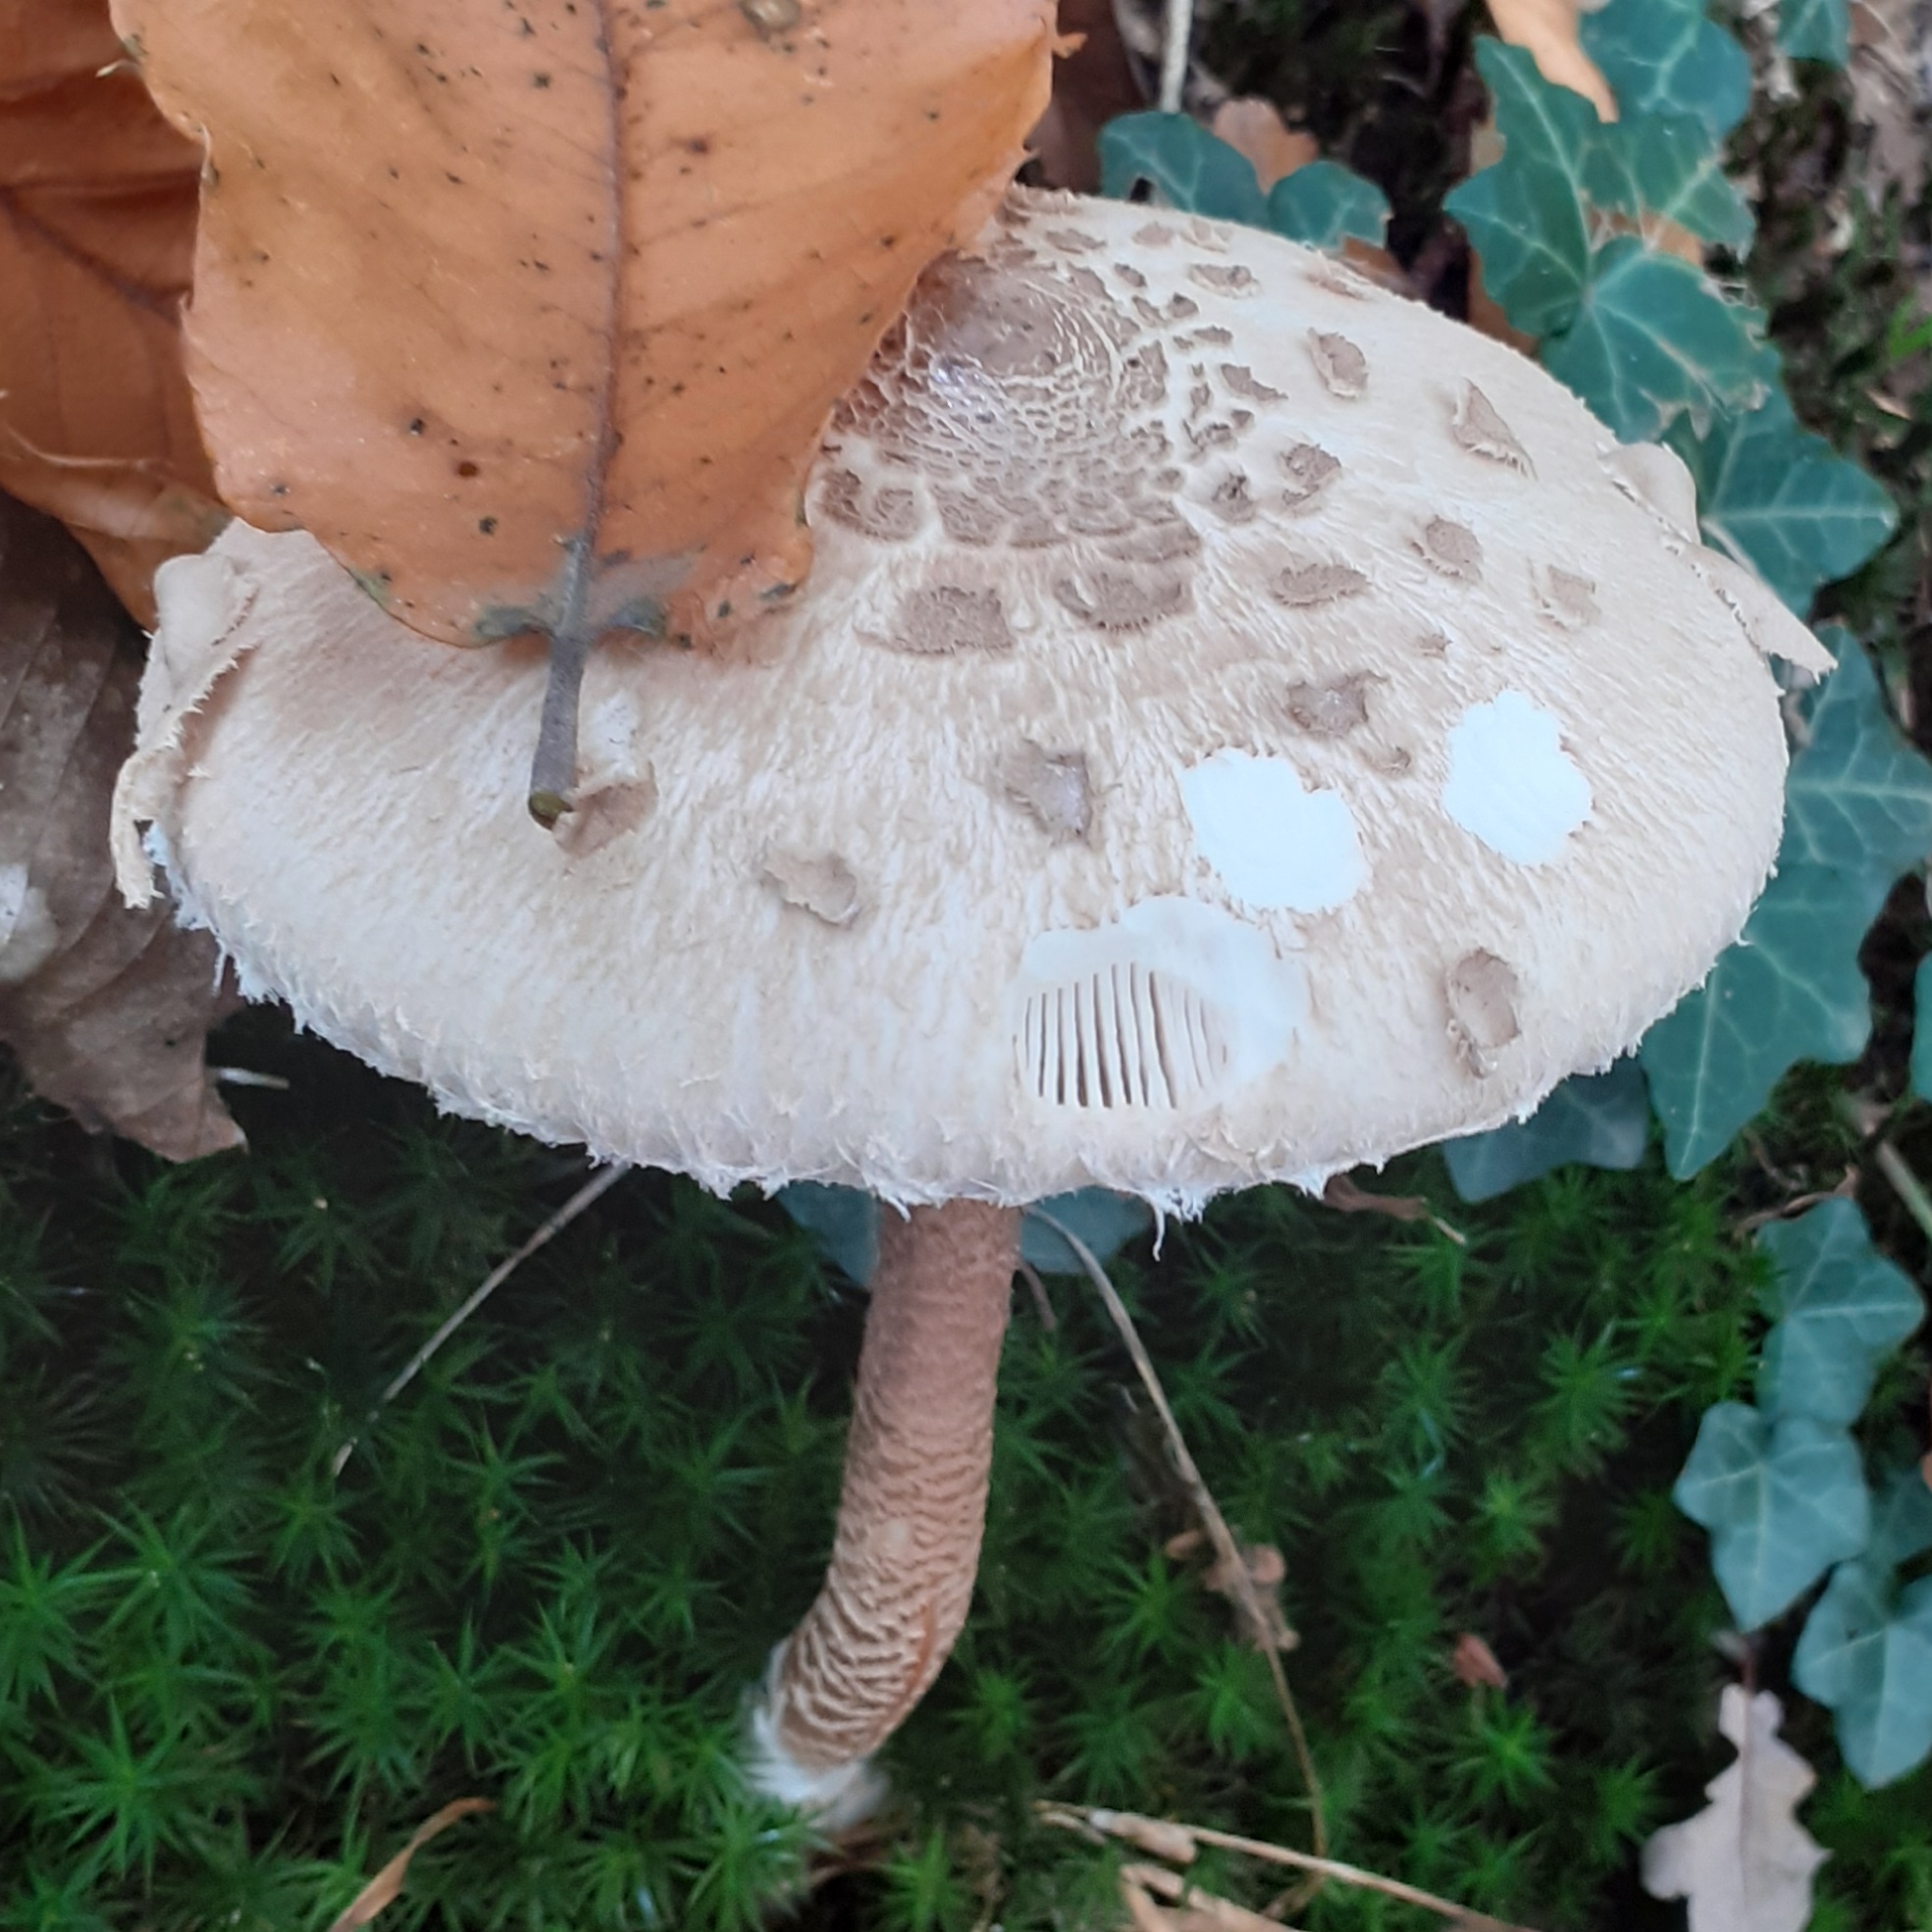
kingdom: Fungi
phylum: Basidiomycota
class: Agaricomycetes
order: Agaricales
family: Agaricaceae
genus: Macrolepiota
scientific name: Macrolepiota procera
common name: Parasol
